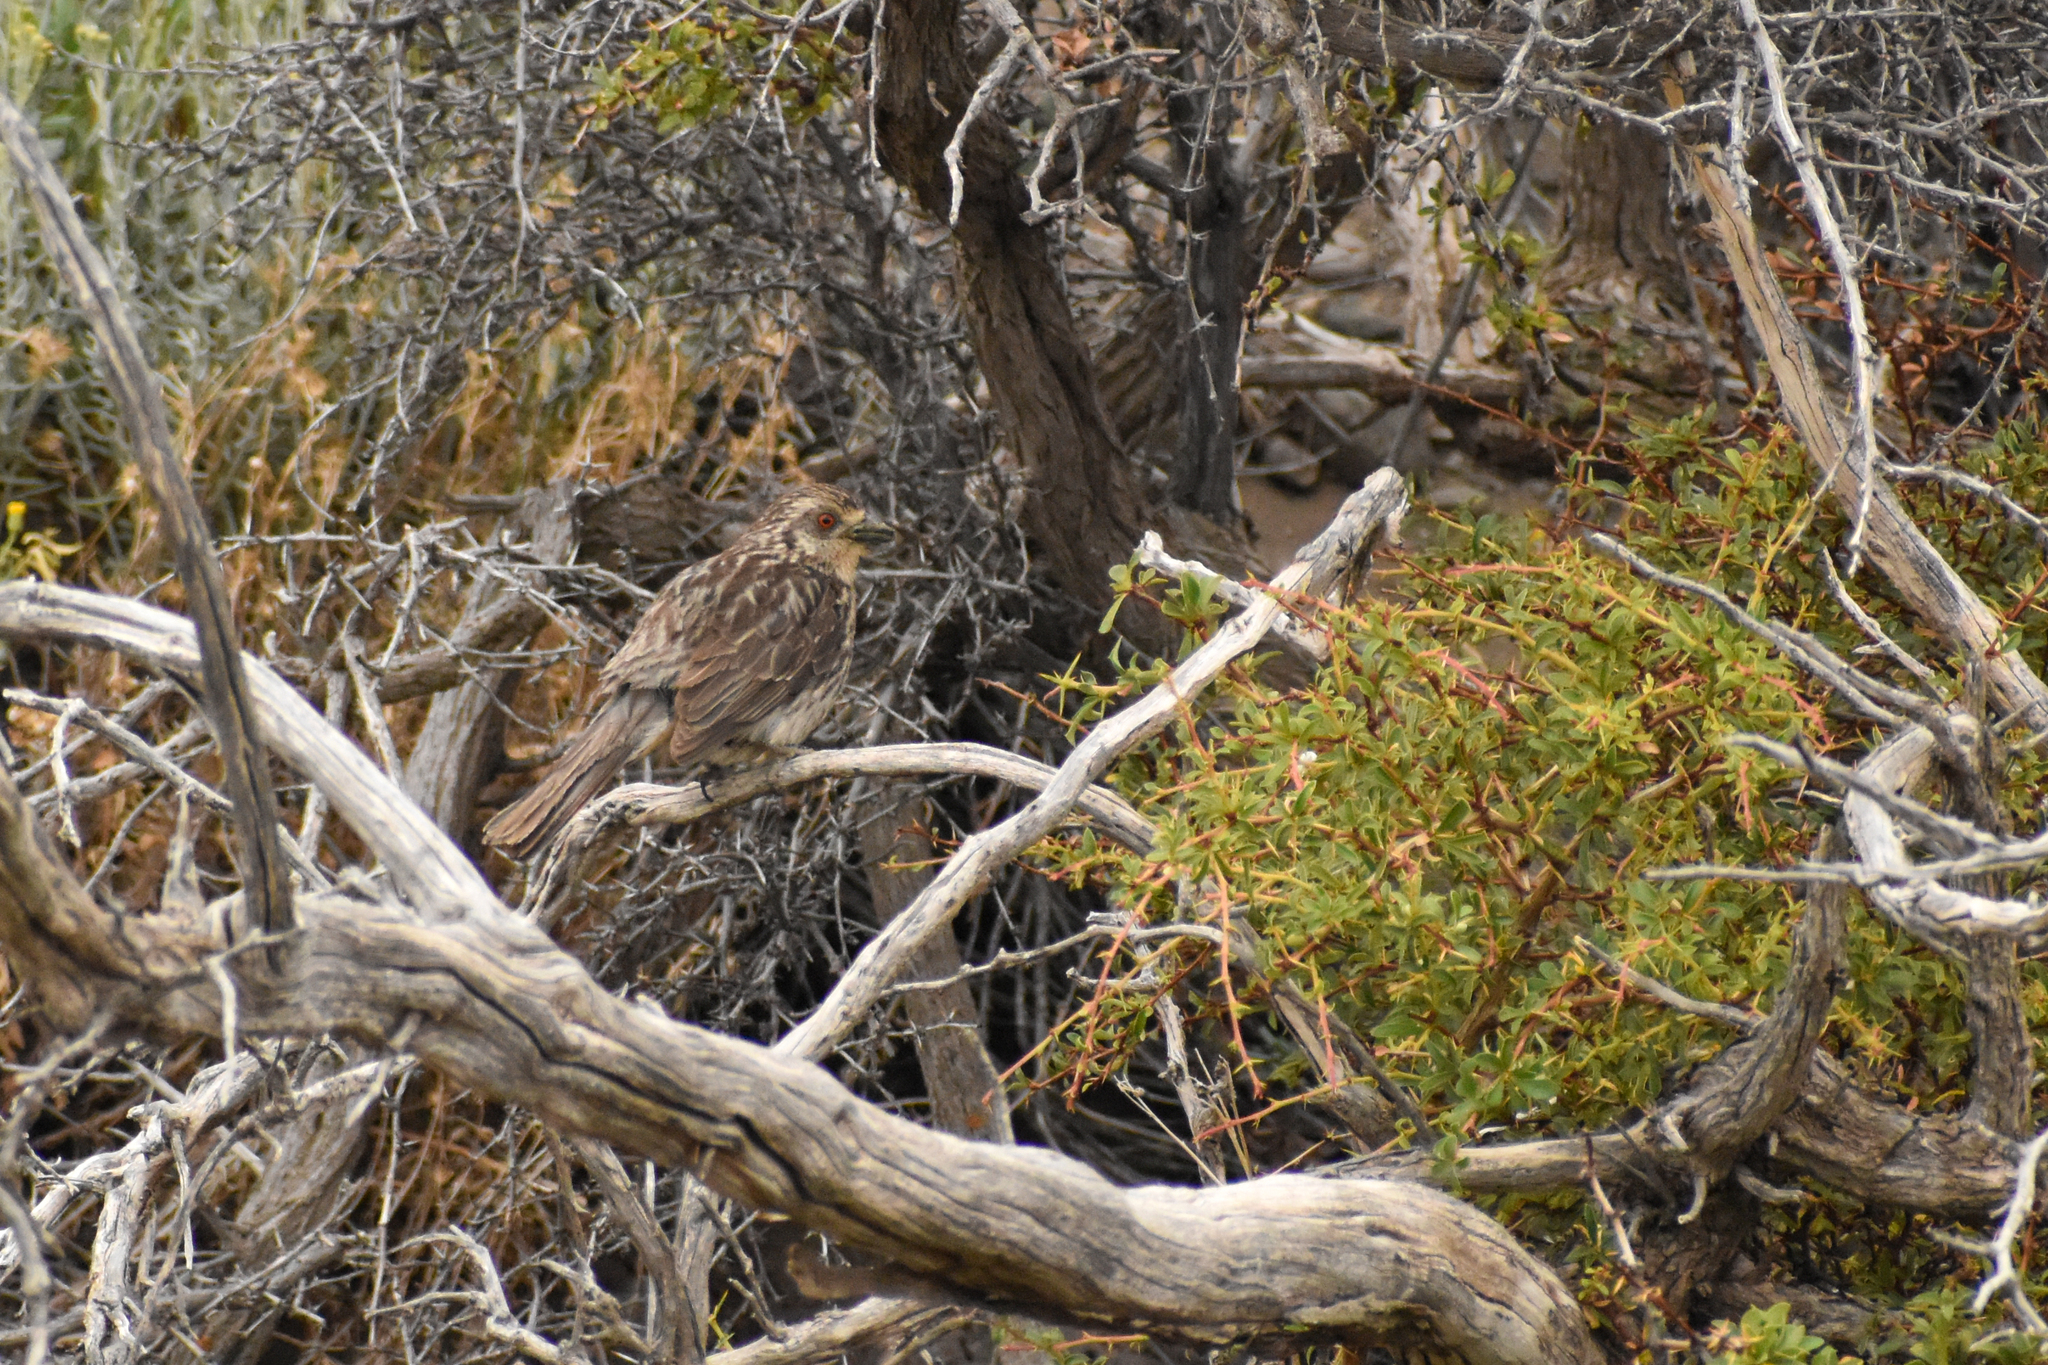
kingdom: Animalia
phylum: Chordata
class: Aves
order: Passeriformes
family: Cotingidae
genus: Phytotoma
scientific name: Phytotoma rara
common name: Rufous-tailed plantcutter
